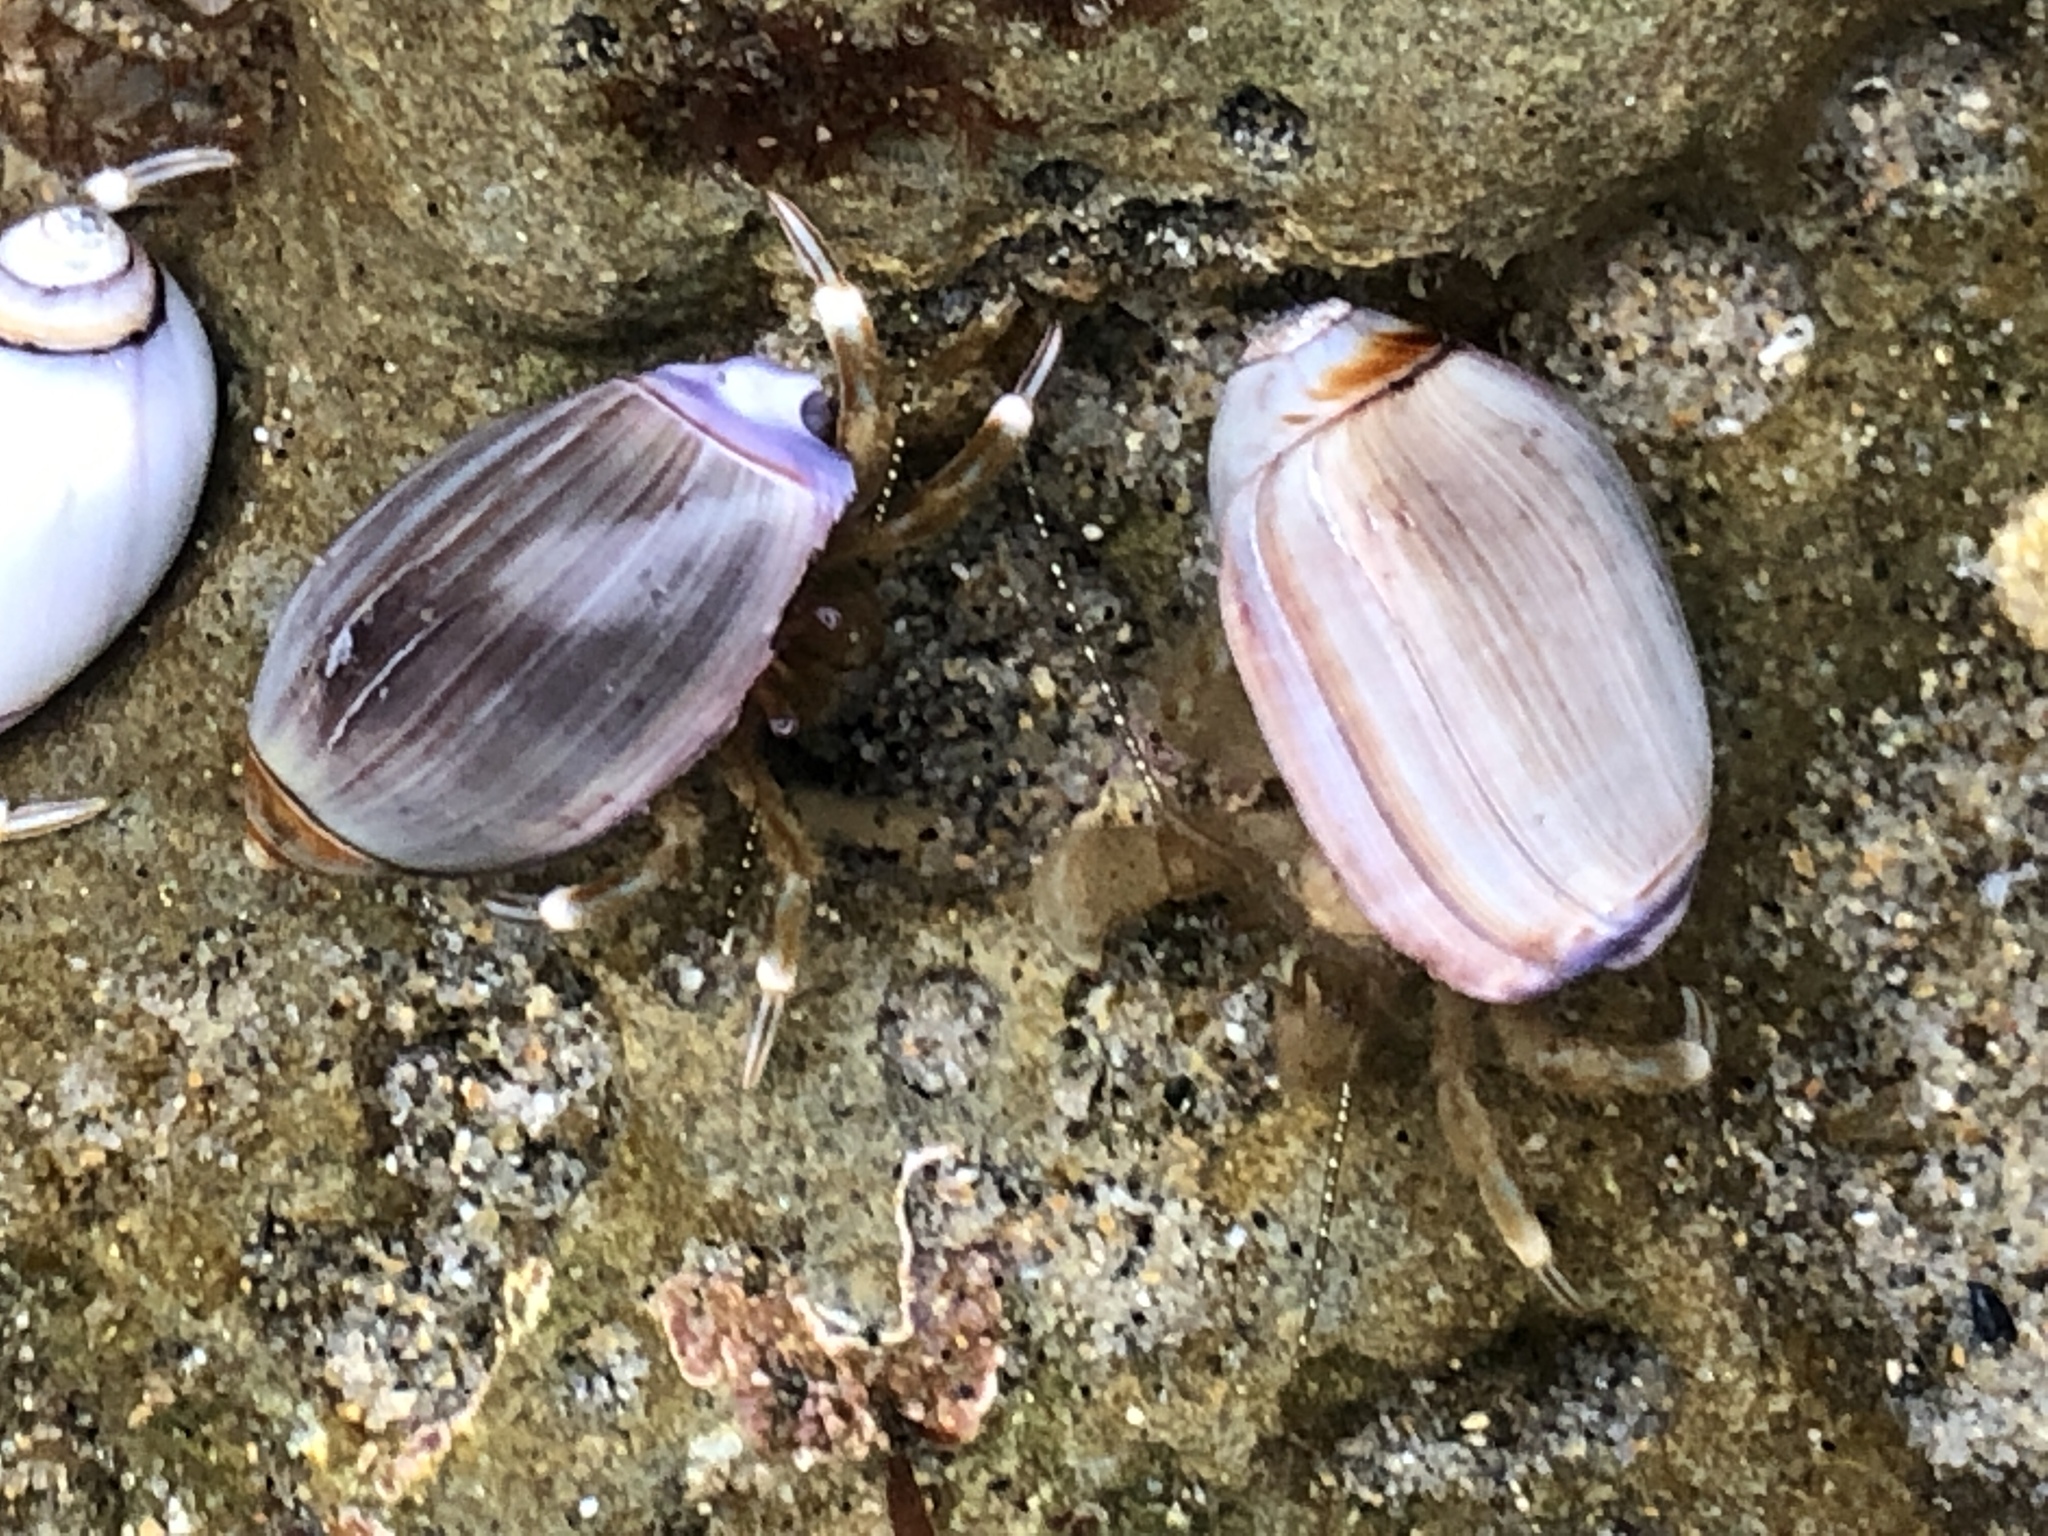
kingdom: Animalia
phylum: Arthropoda
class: Malacostraca
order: Decapoda
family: Paguridae
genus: Pagurus
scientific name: Pagurus venturensis
